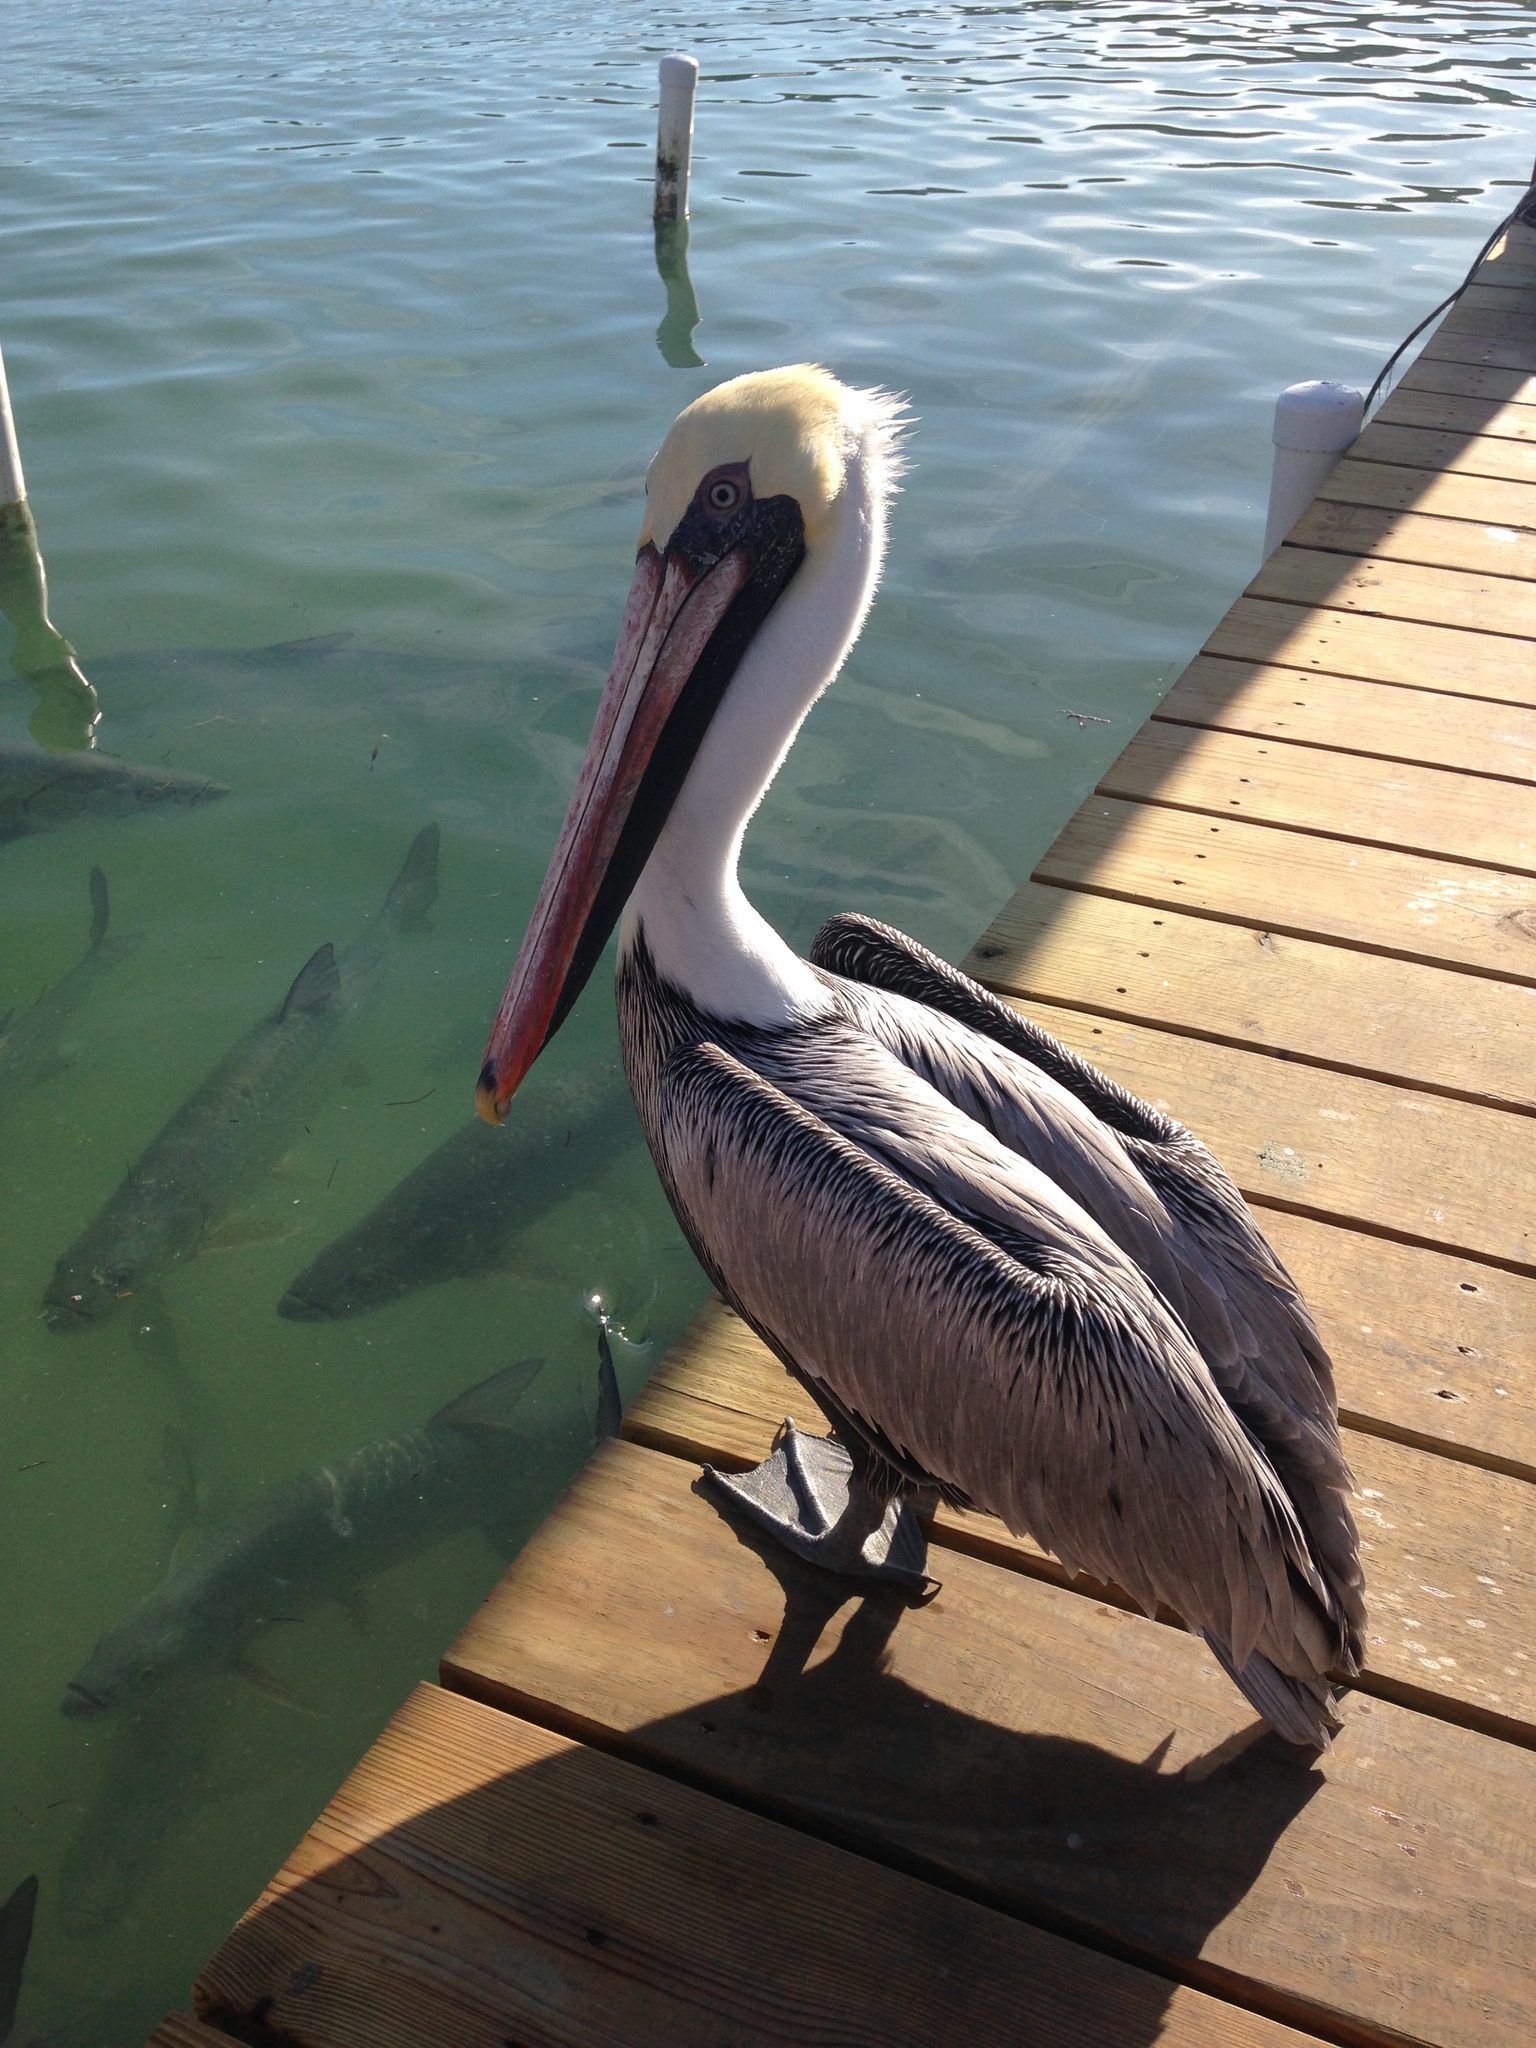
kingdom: Animalia
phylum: Chordata
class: Aves
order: Pelecaniformes
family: Pelecanidae
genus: Pelecanus
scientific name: Pelecanus occidentalis
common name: Brown pelican
